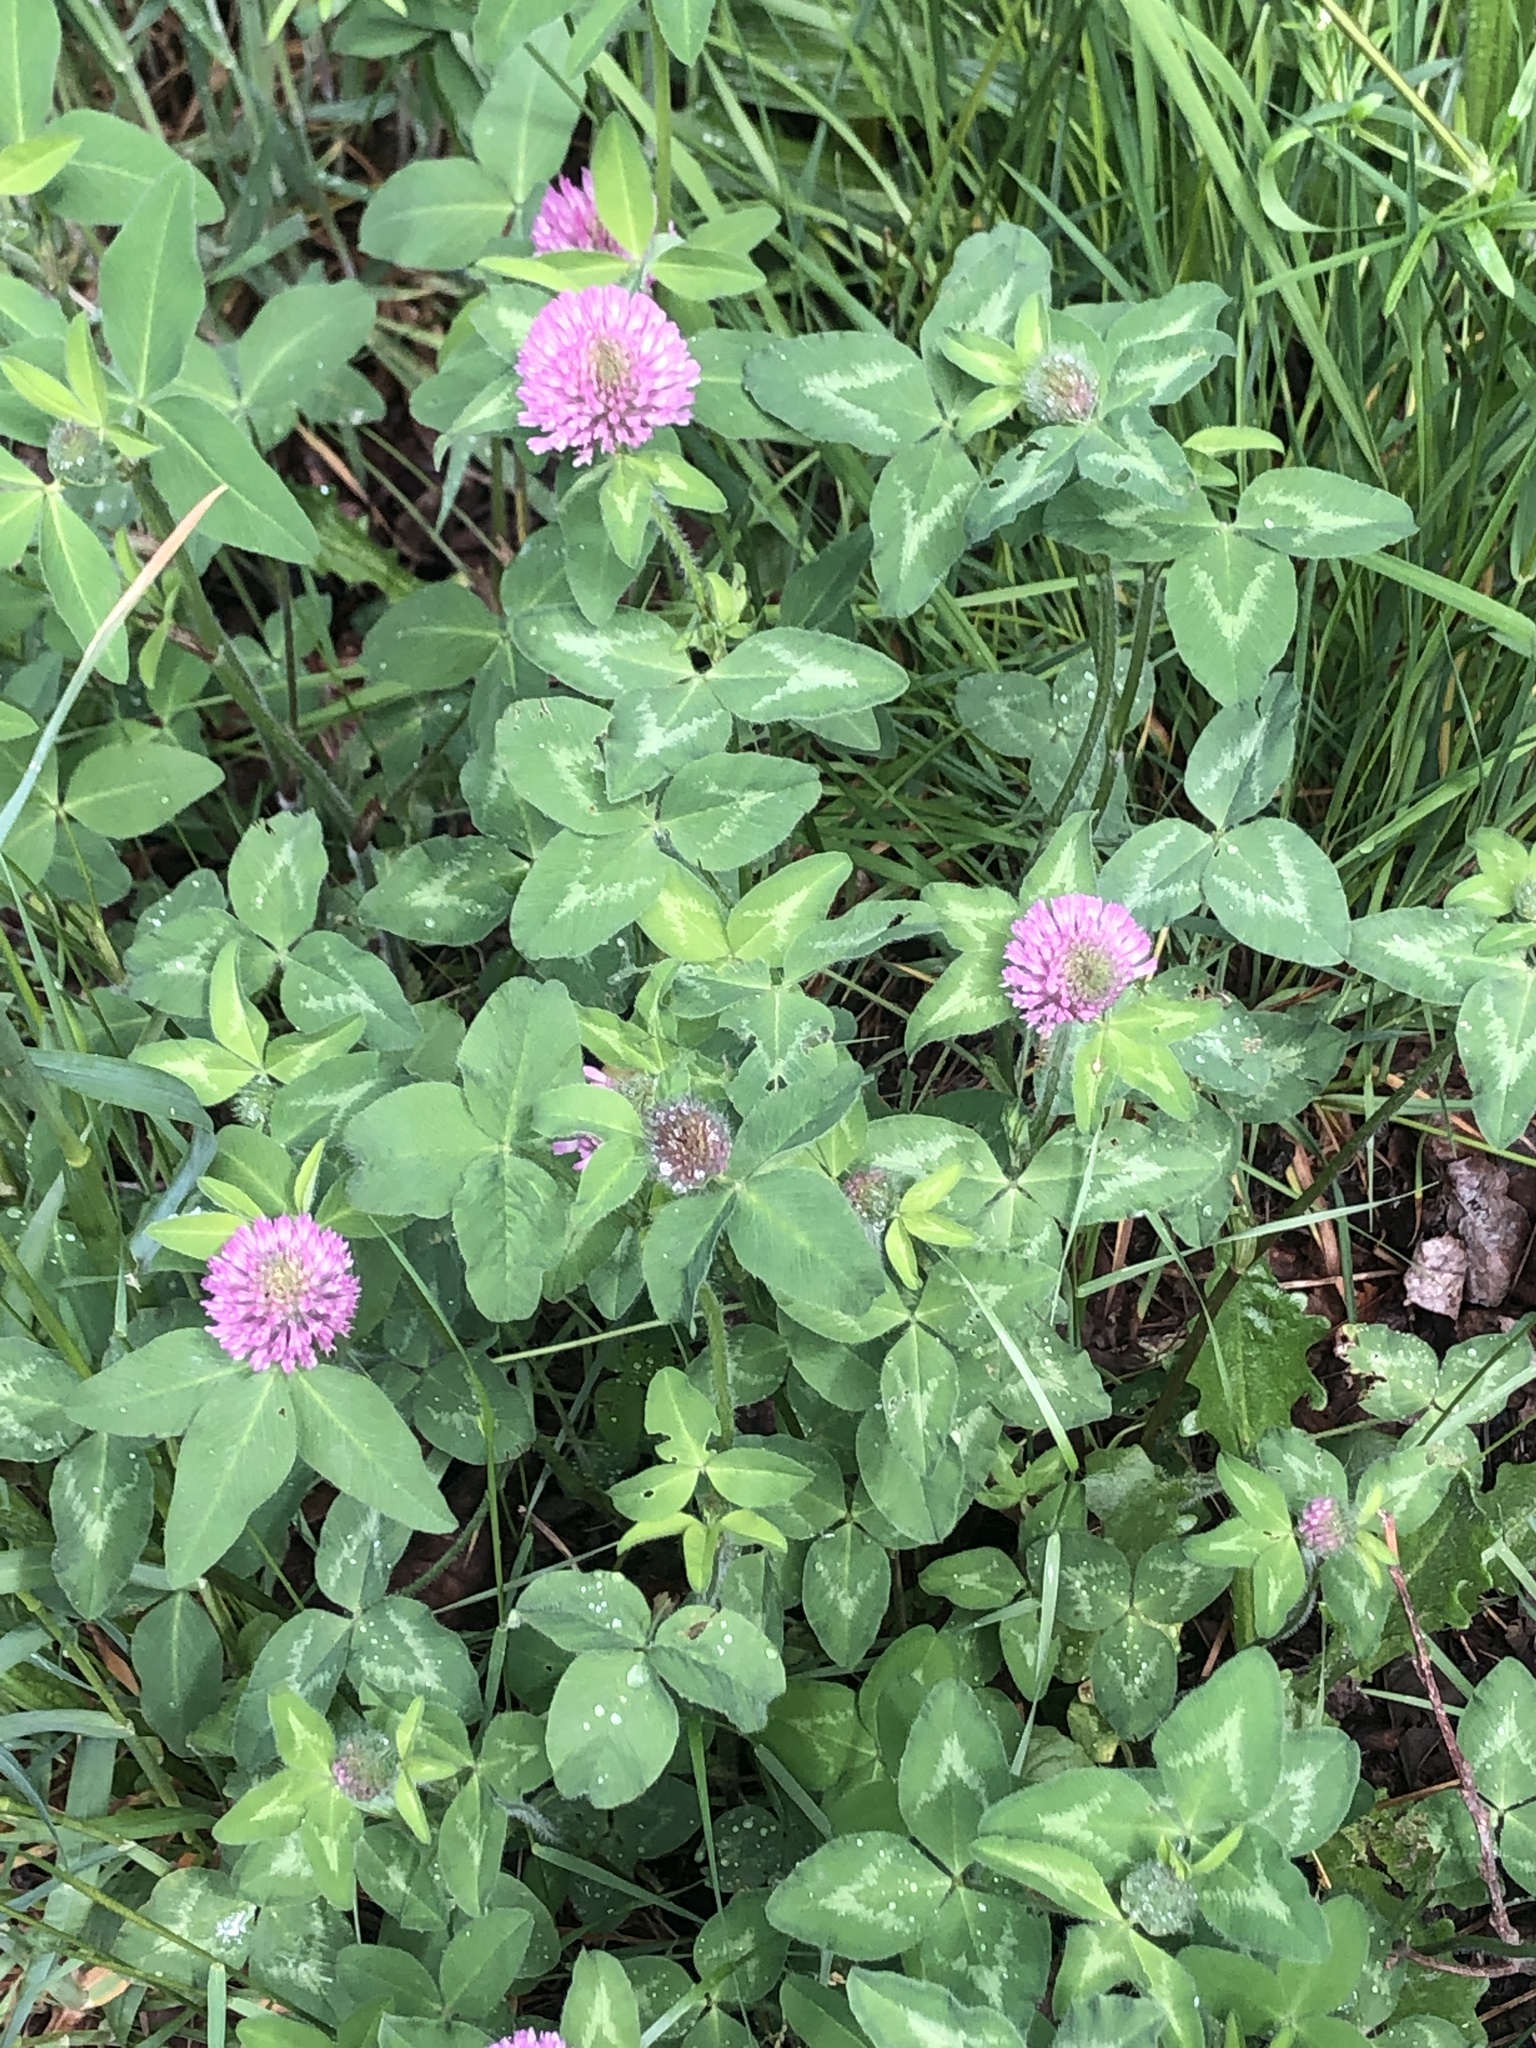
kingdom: Plantae
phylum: Tracheophyta
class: Magnoliopsida
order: Fabales
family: Fabaceae
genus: Trifolium
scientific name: Trifolium pratense
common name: Red clover
